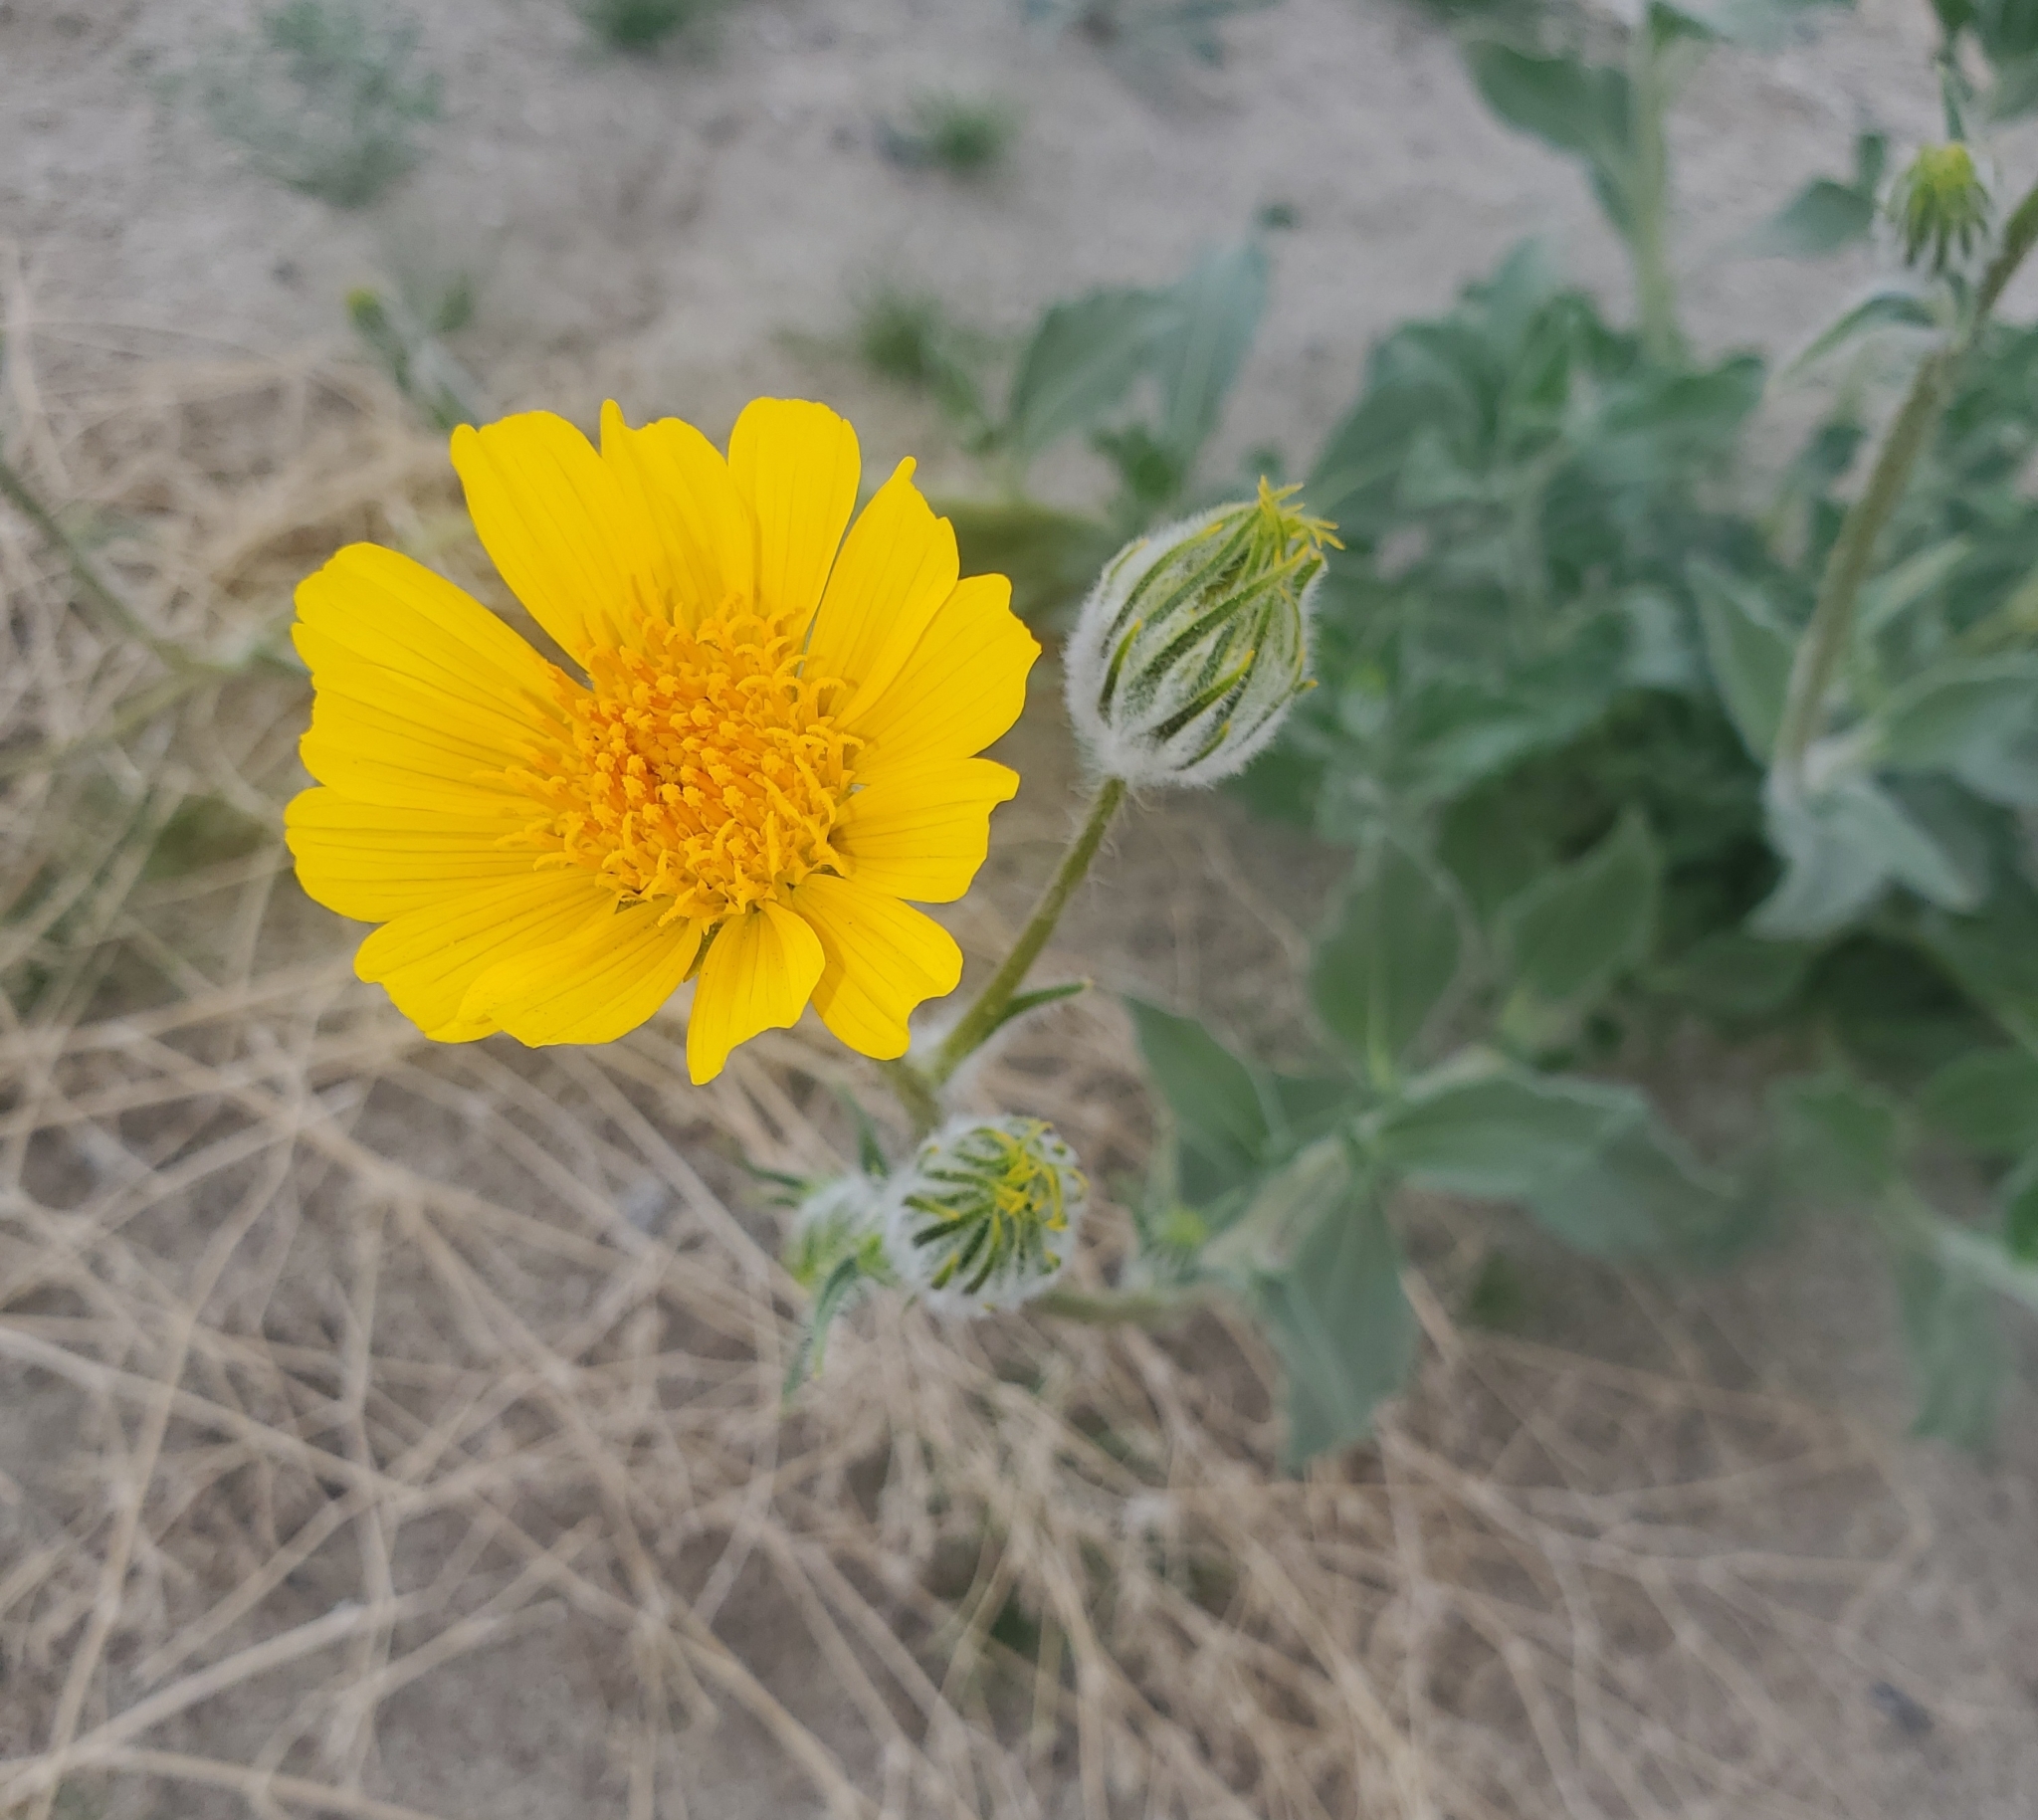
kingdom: Plantae
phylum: Tracheophyta
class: Magnoliopsida
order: Asterales
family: Asteraceae
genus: Geraea
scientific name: Geraea canescens
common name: Desert-gold
